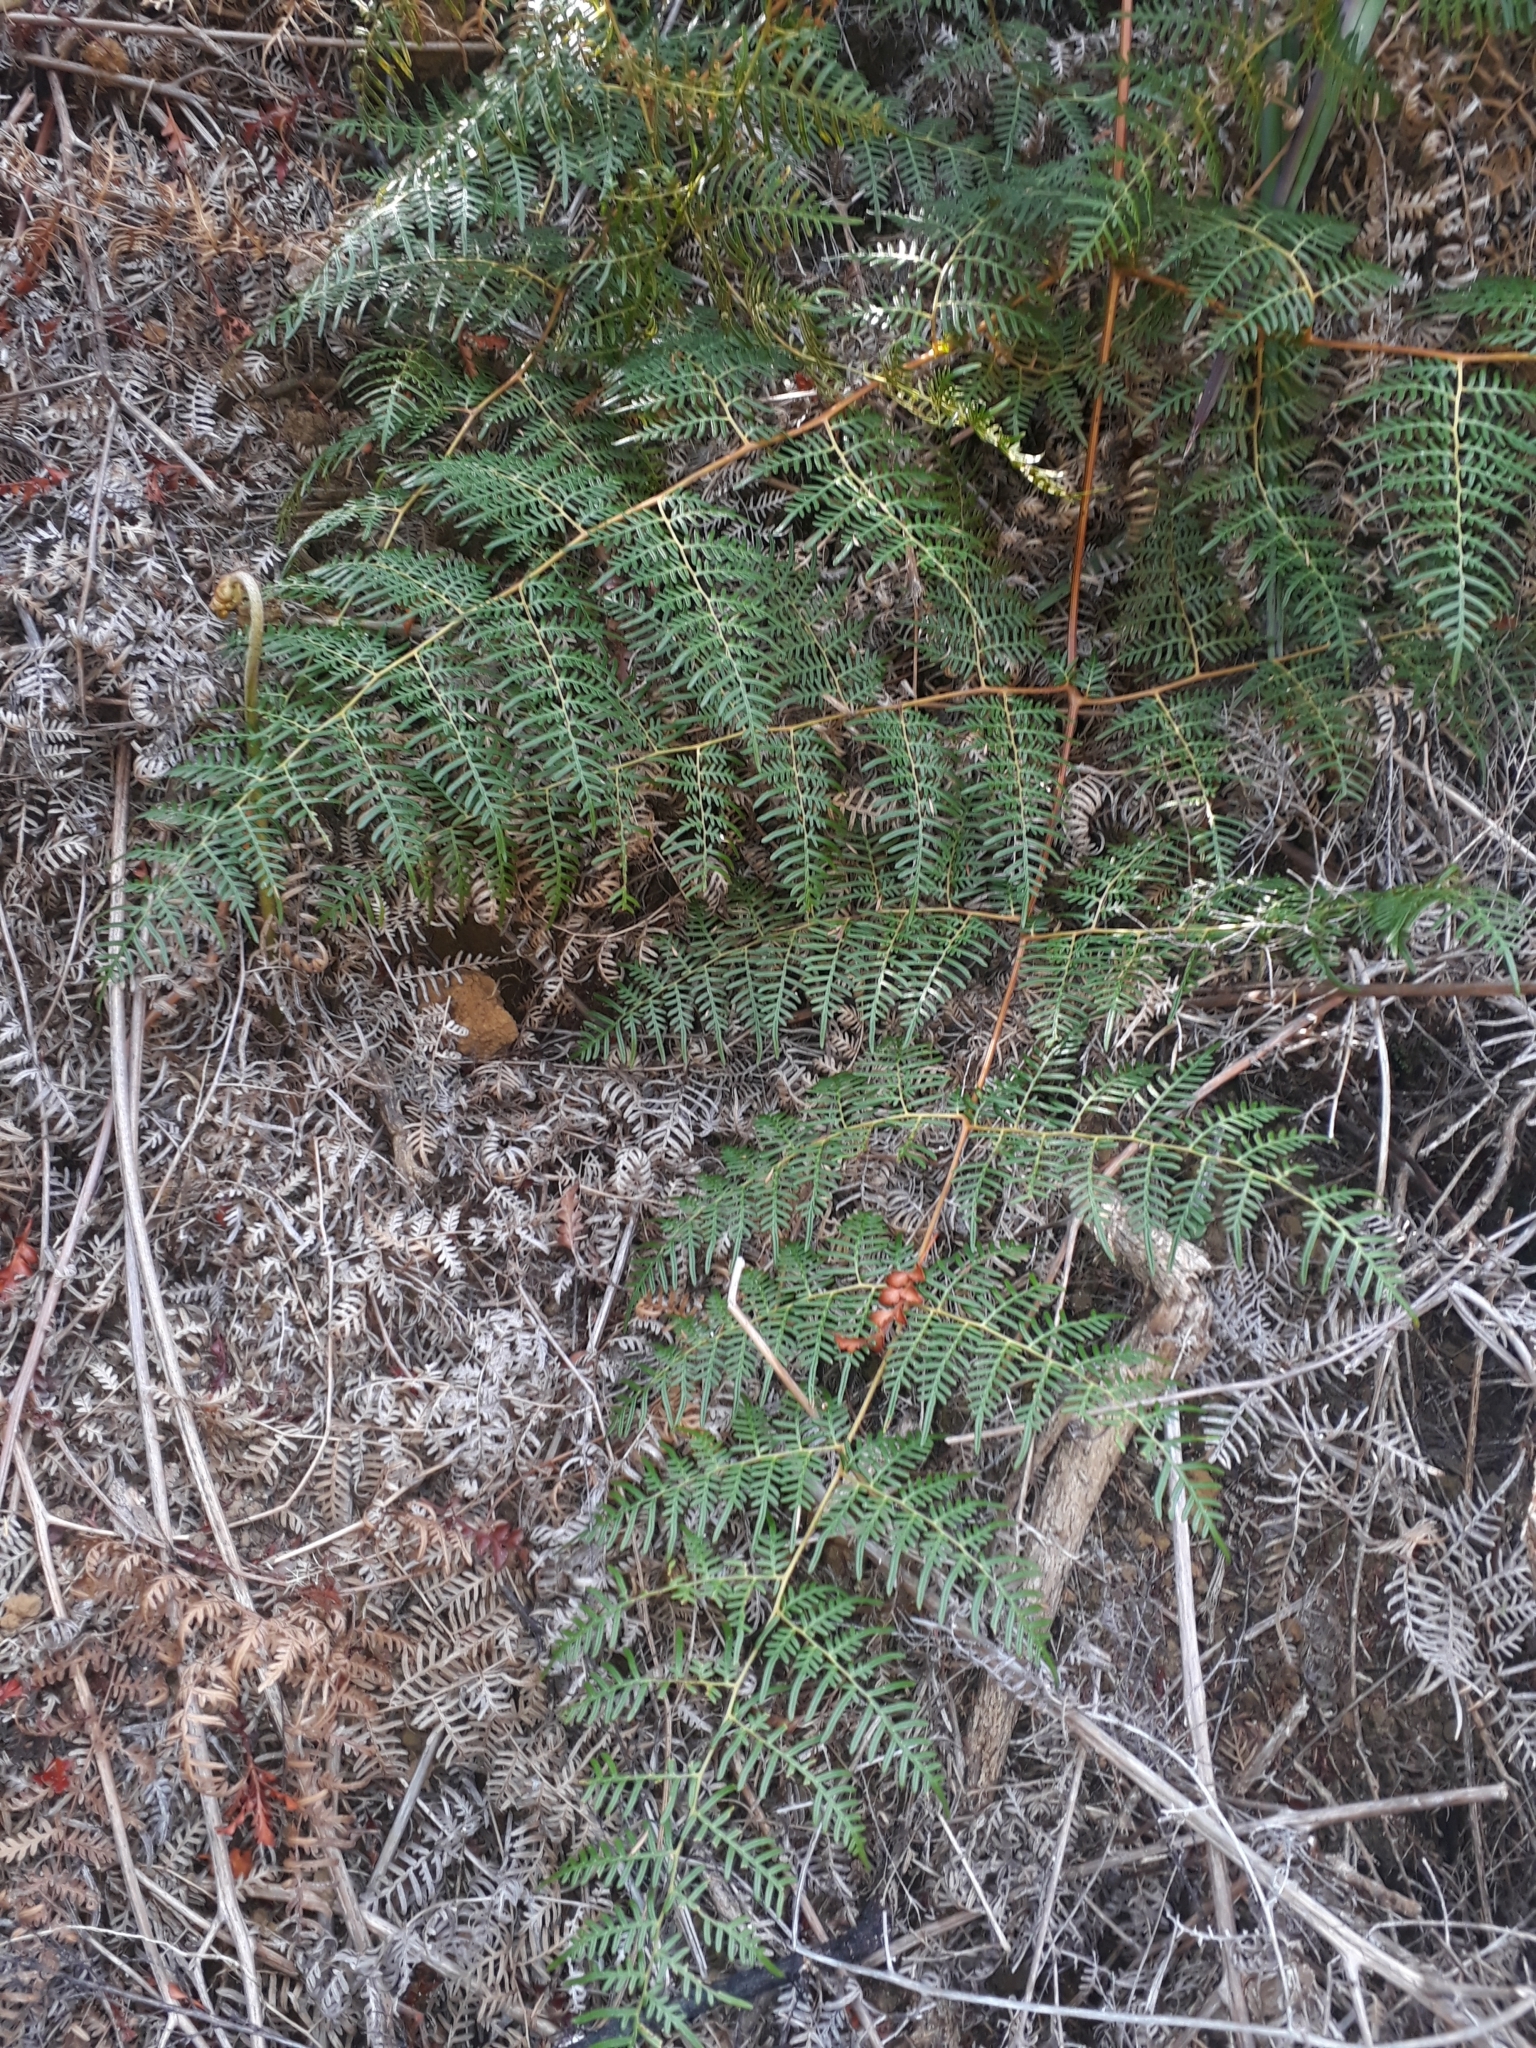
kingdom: Plantae
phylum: Tracheophyta
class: Polypodiopsida
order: Polypodiales
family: Dennstaedtiaceae
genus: Pteridium
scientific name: Pteridium esculentum
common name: Bracken fern
